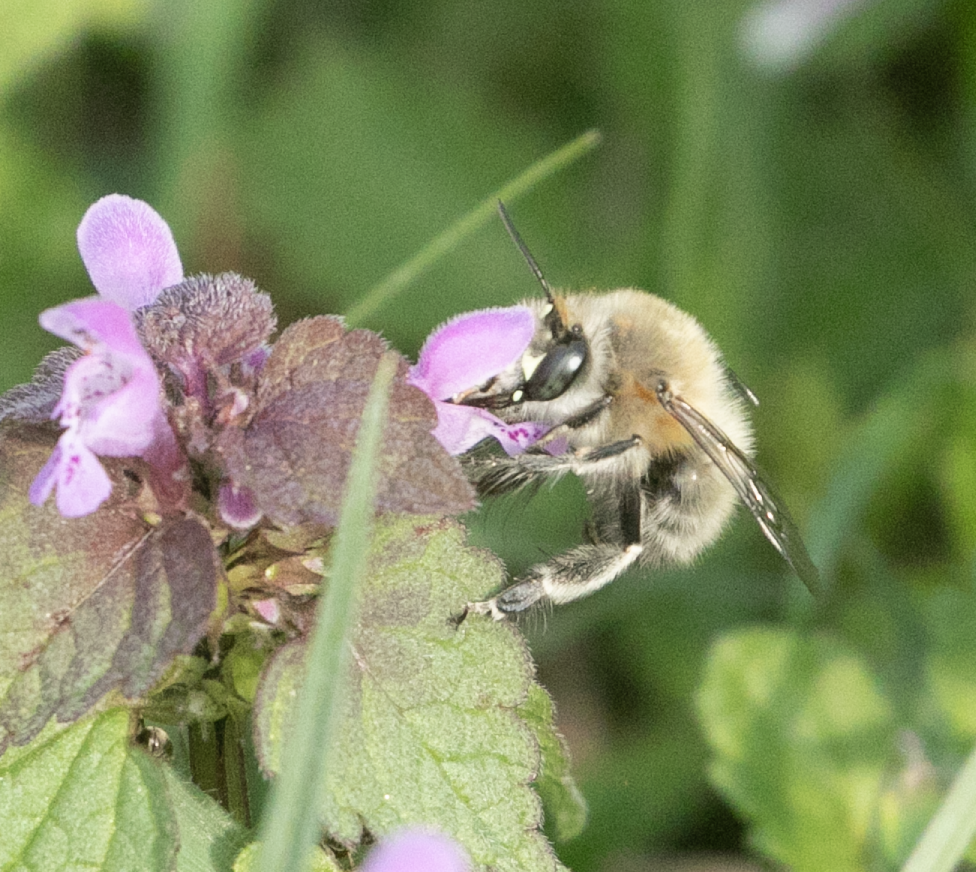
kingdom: Animalia
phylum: Arthropoda
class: Insecta
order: Hymenoptera
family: Apidae
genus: Anthophora
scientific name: Anthophora plumipes
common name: Hairy-footed flower bee
